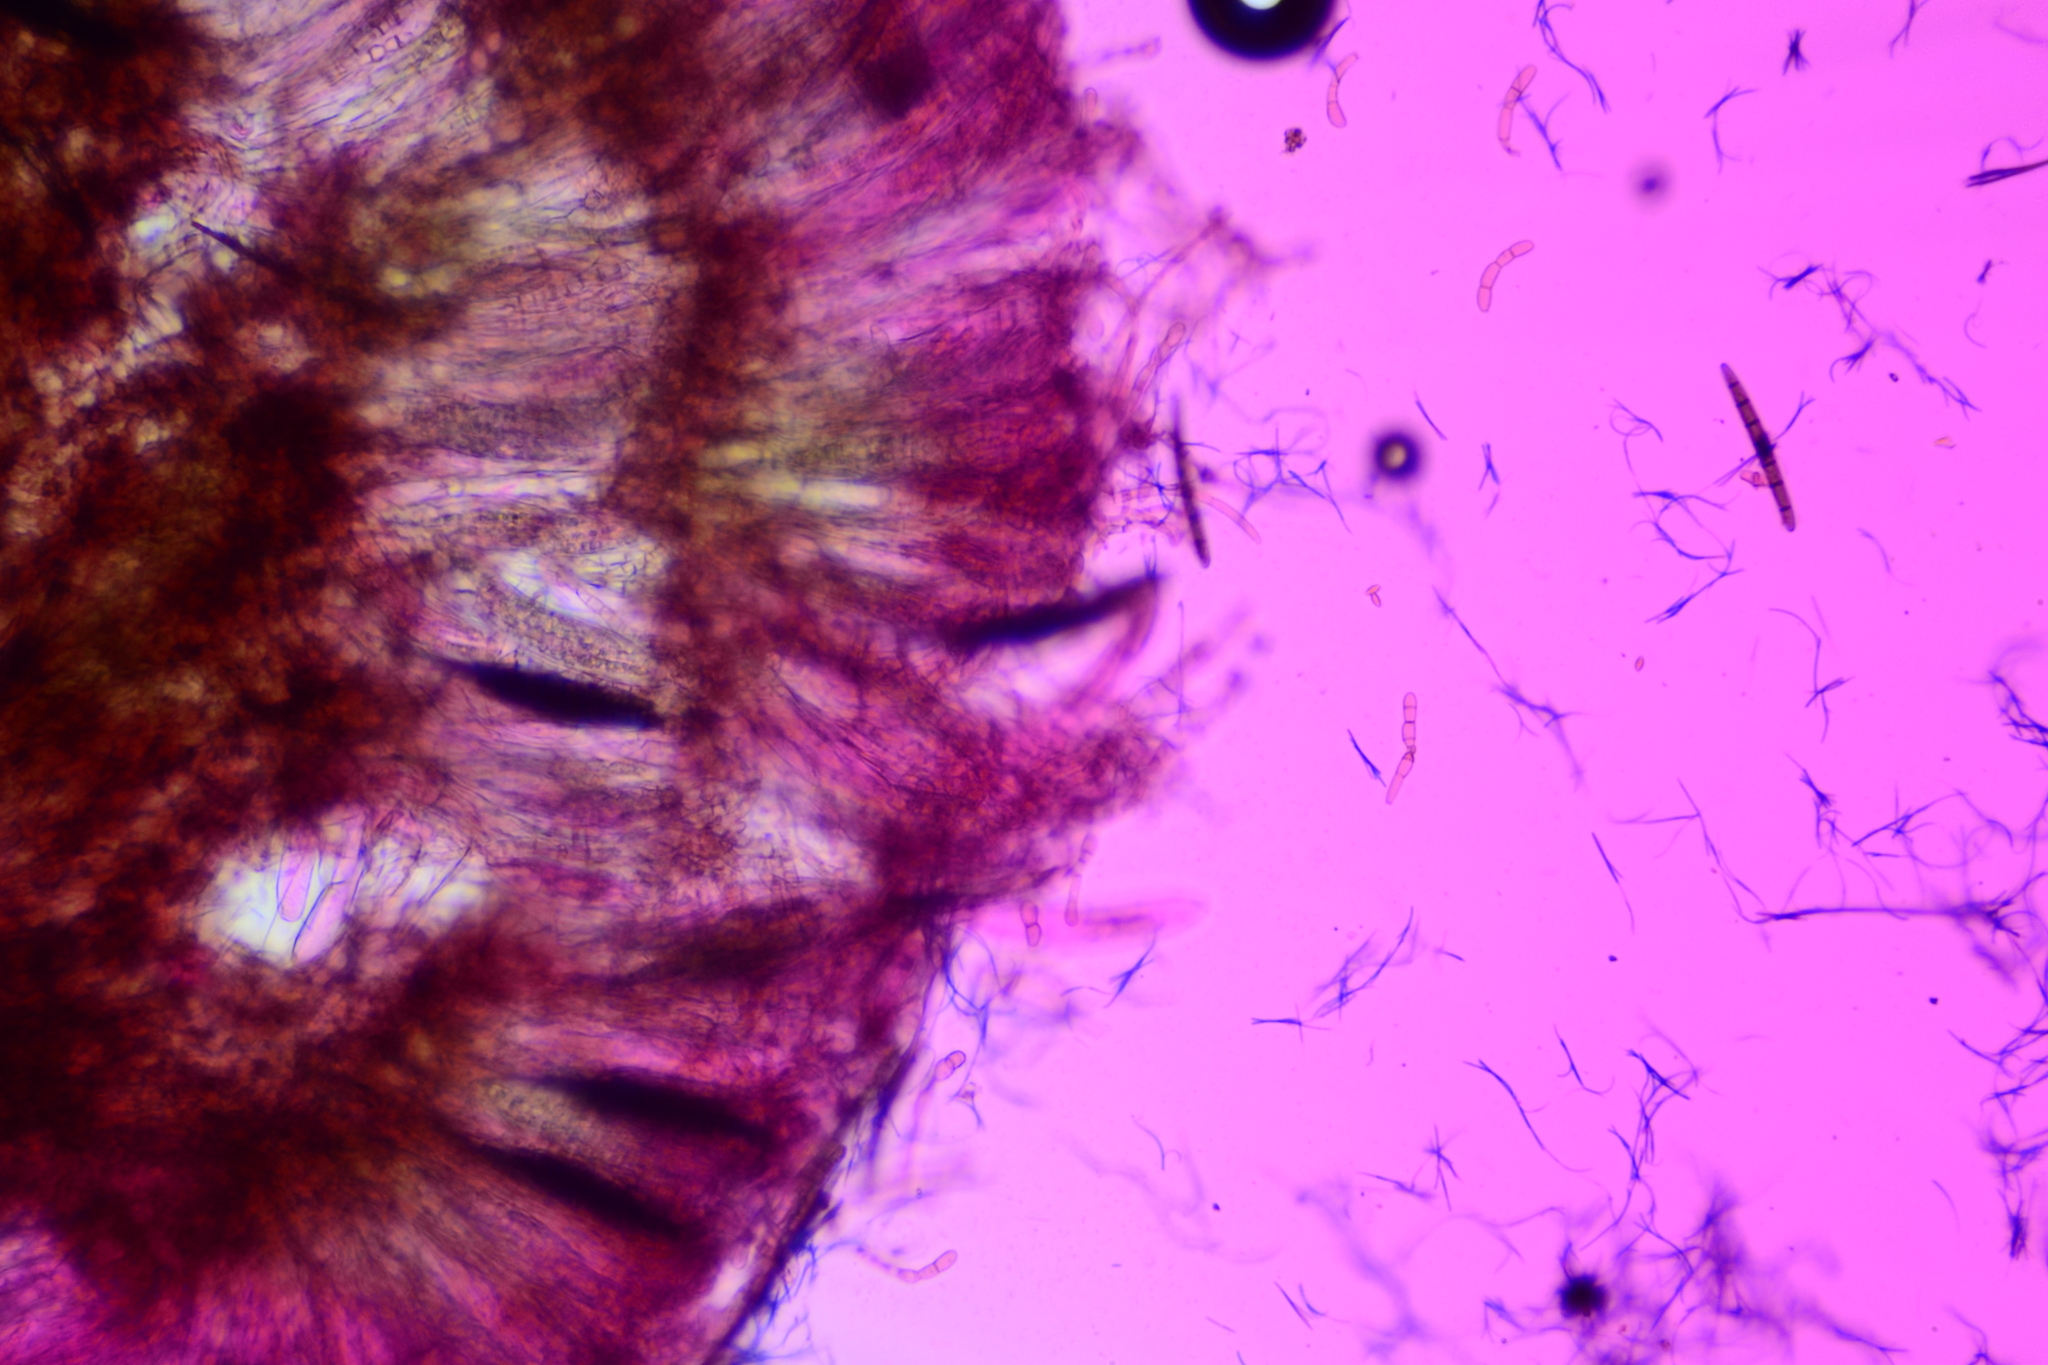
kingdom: Fungi
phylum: Ascomycota
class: Geoglossomycetes
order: Geoglossales
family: Geoglossaceae
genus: Geoglossum
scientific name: Geoglossum simile
